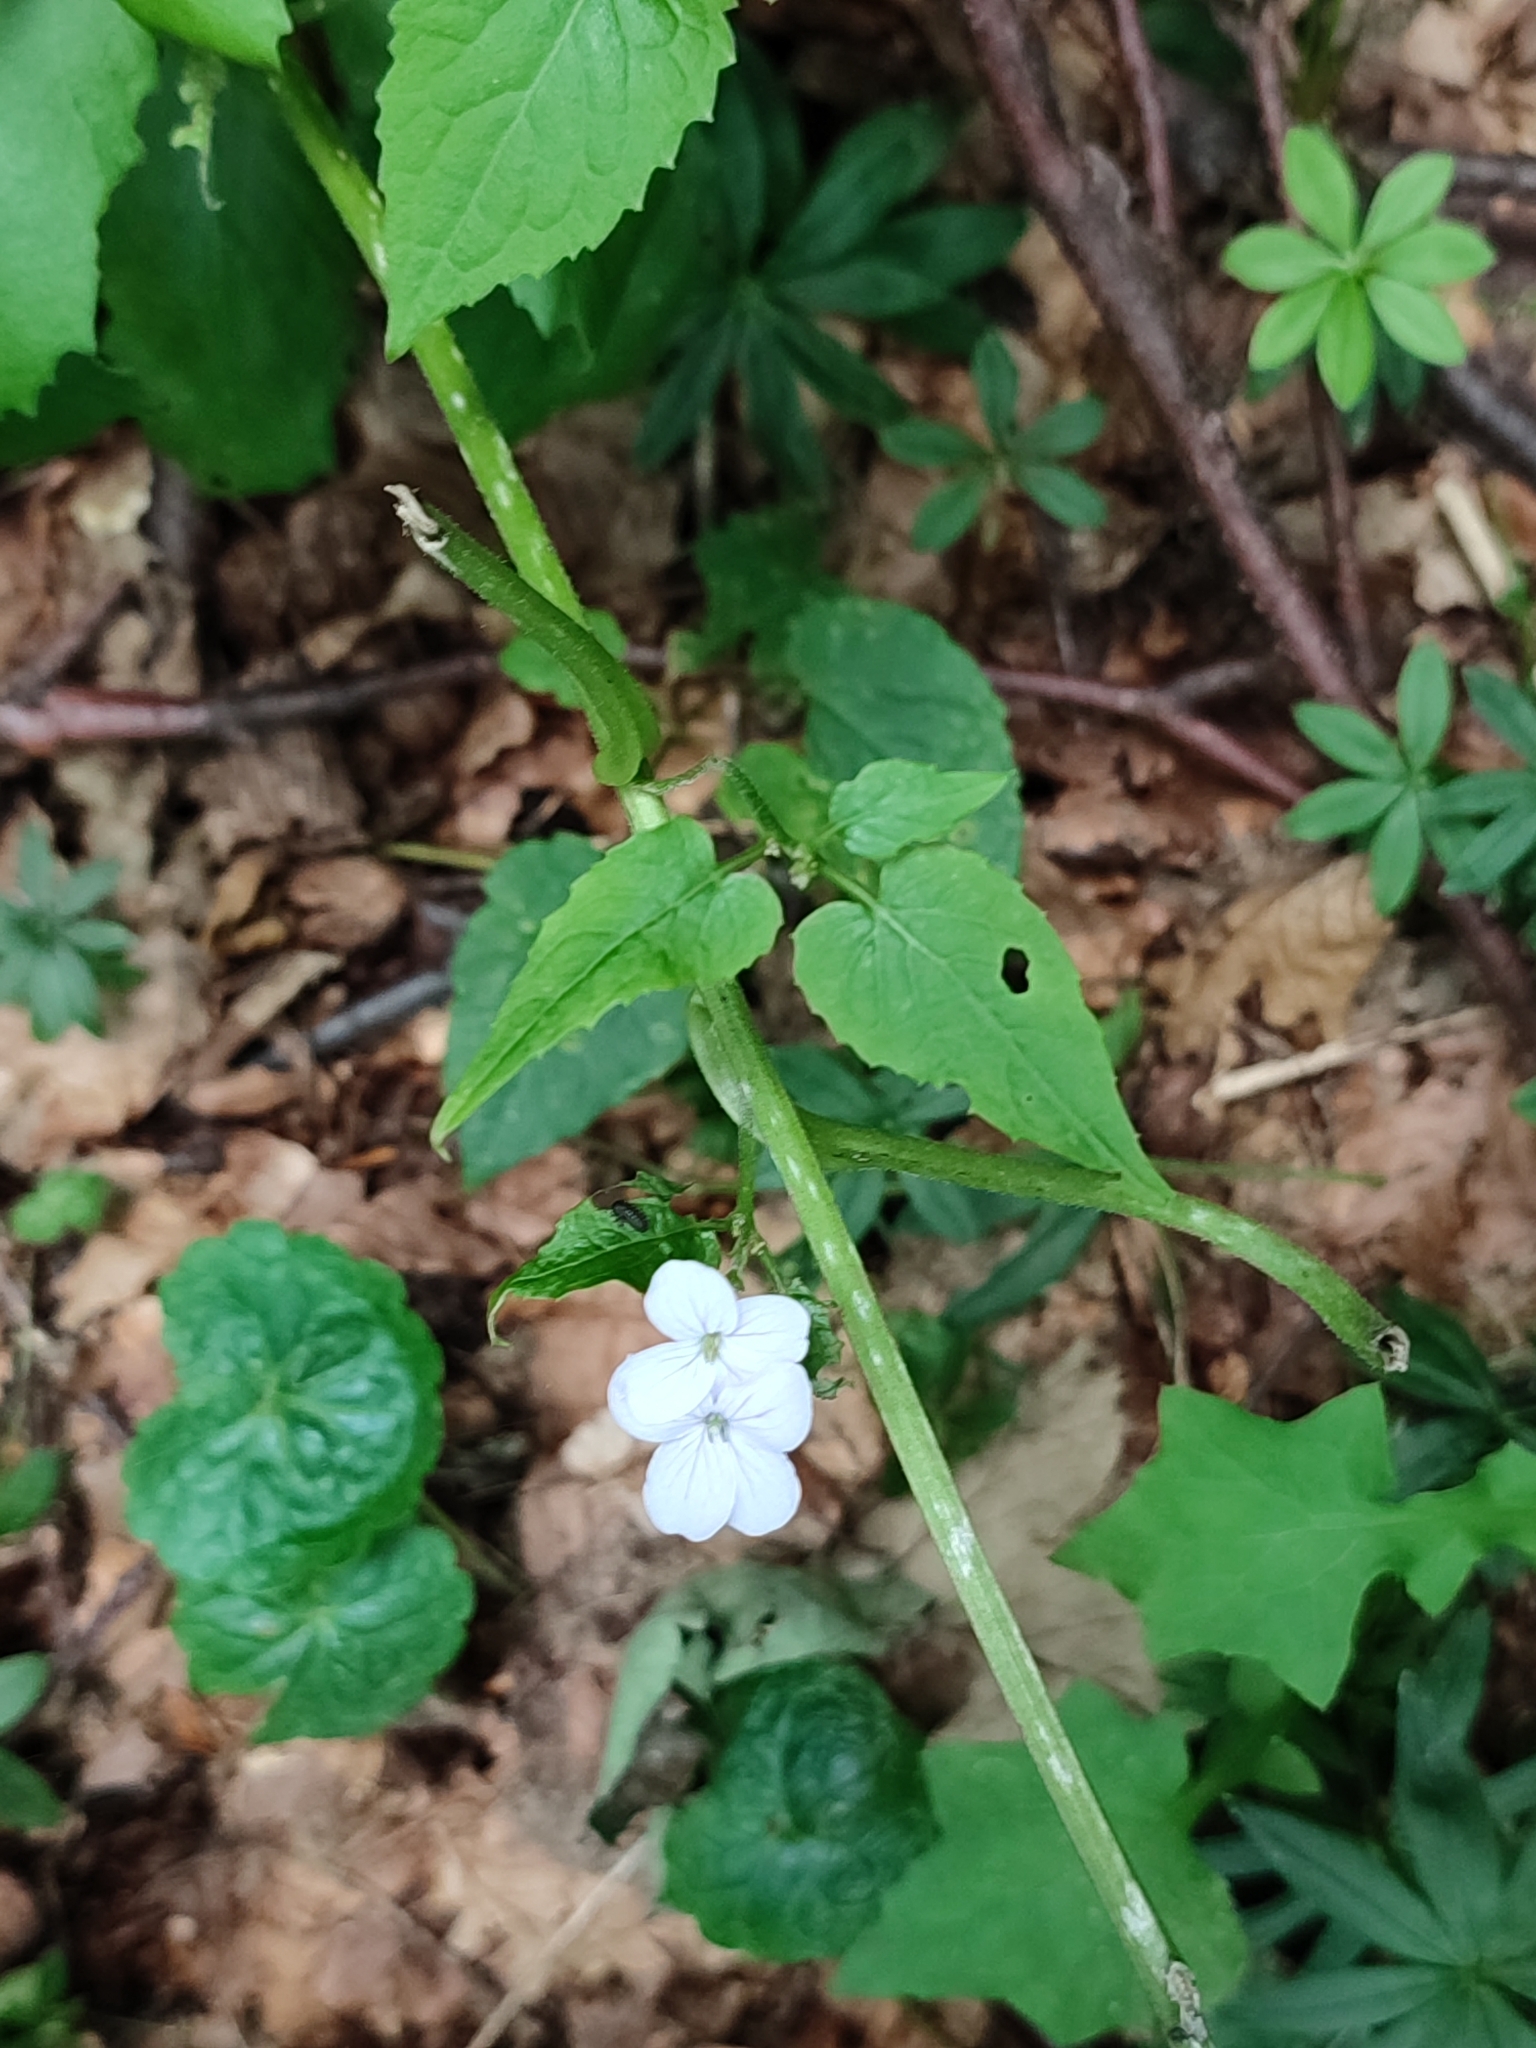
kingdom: Plantae
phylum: Tracheophyta
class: Magnoliopsida
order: Brassicales
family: Brassicaceae
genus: Cardamine
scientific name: Cardamine bulbifera
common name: Coralroot bittercress
